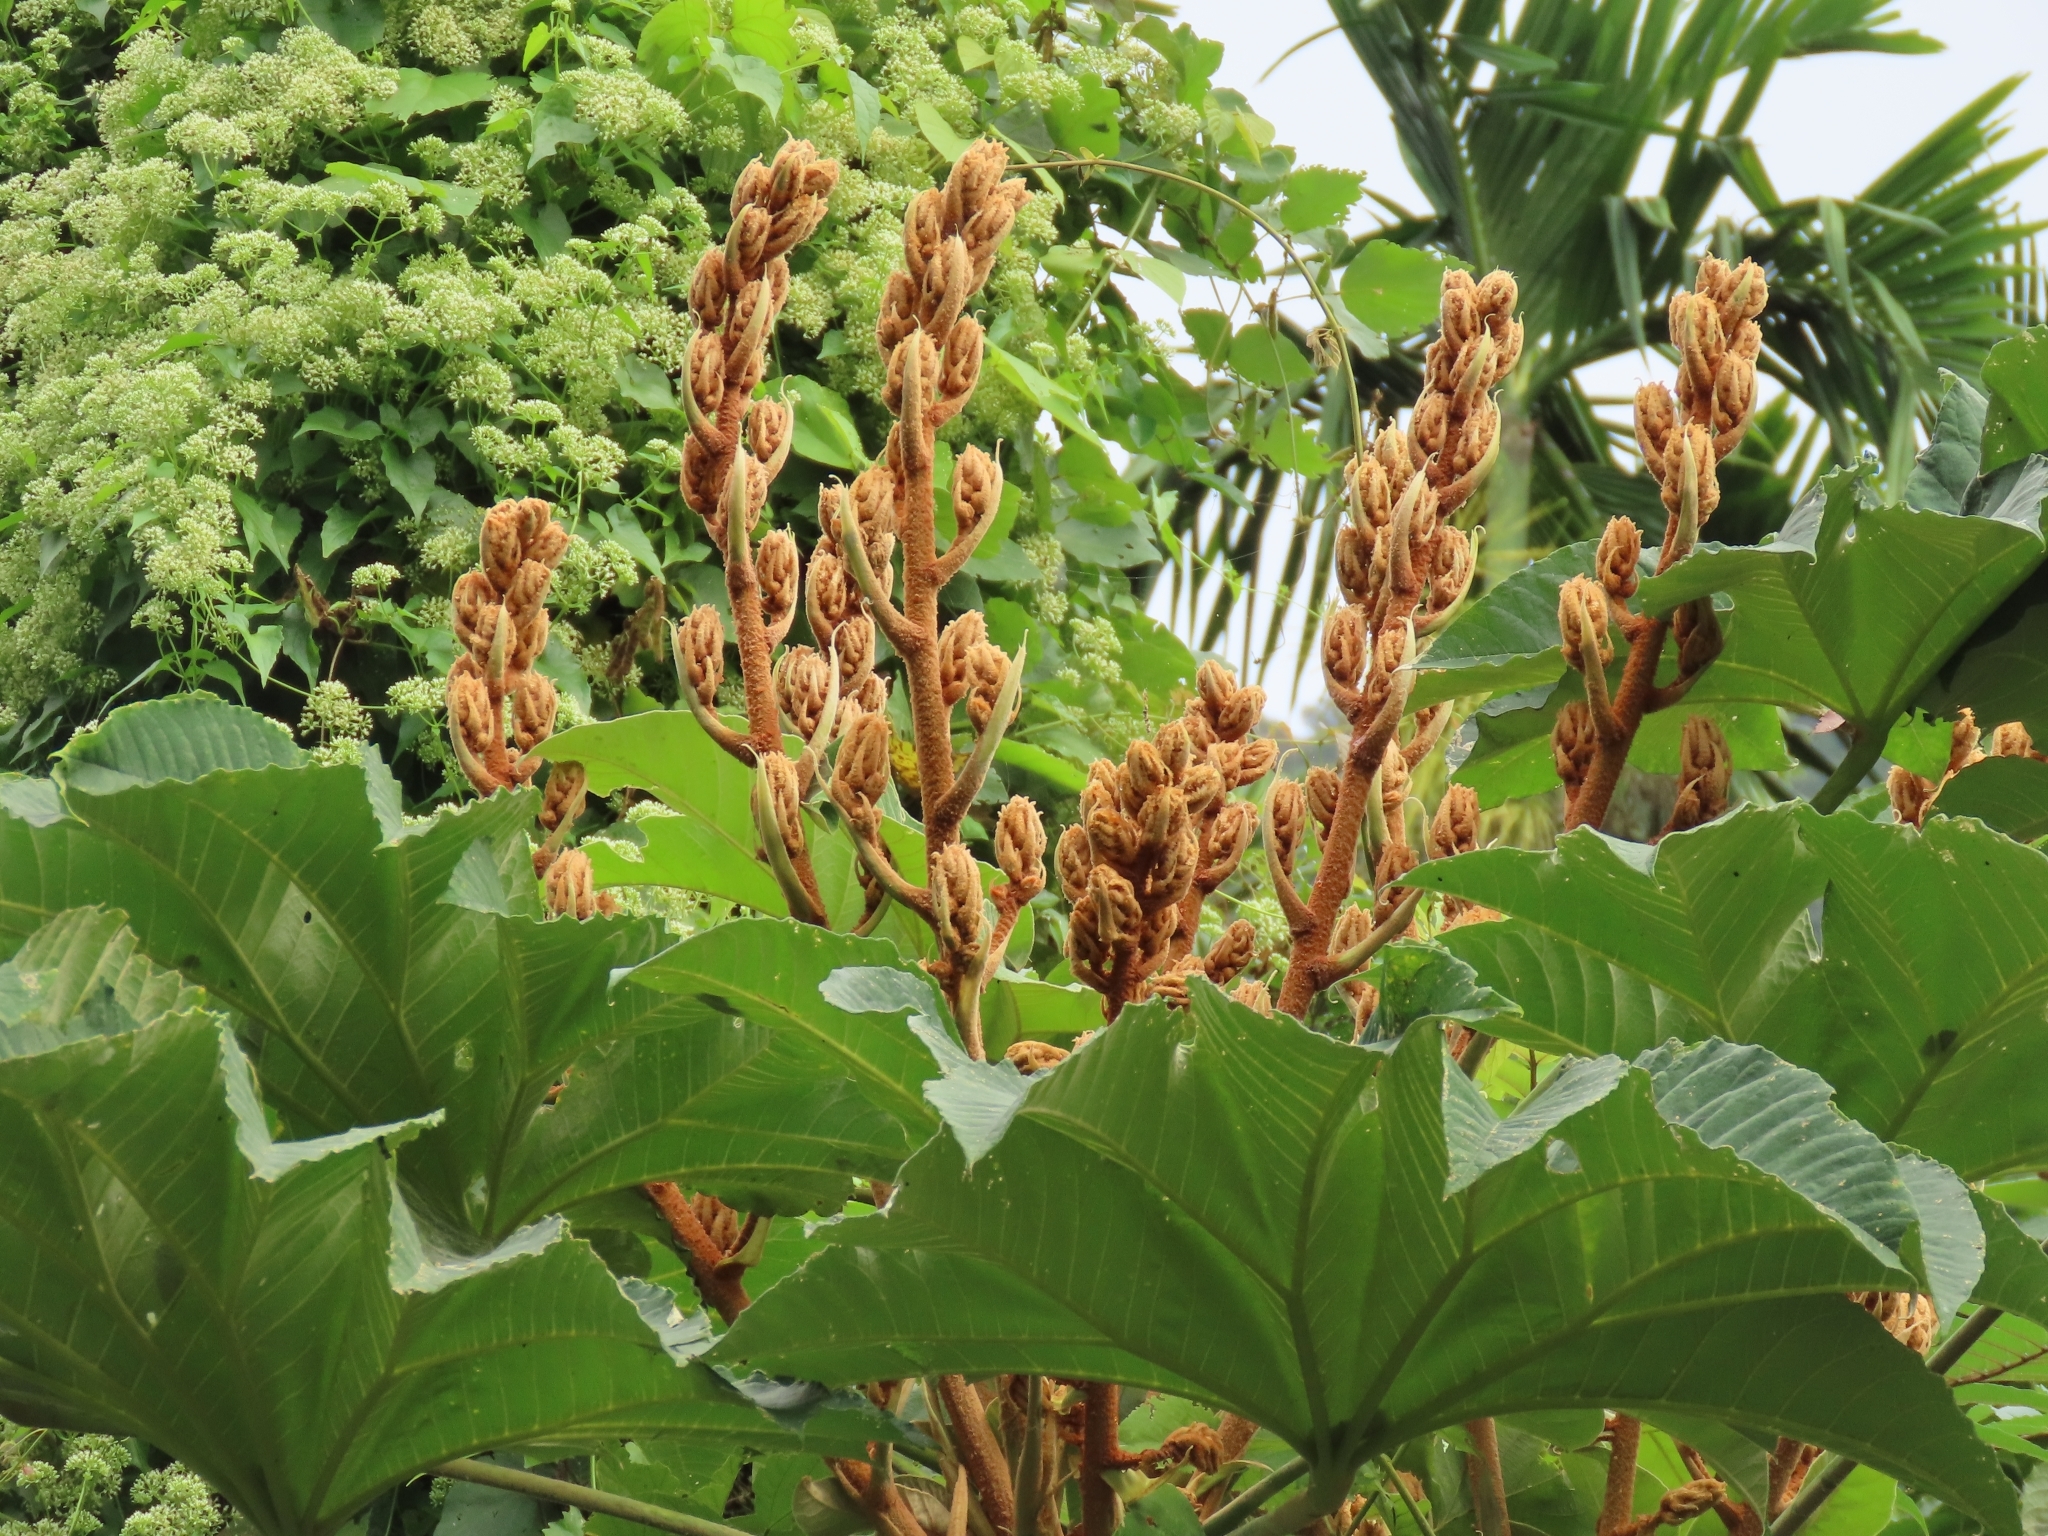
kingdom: Plantae
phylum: Tracheophyta
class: Magnoliopsida
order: Apiales
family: Araliaceae
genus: Tetrapanax
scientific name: Tetrapanax papyrifer
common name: Rice-paper plant
